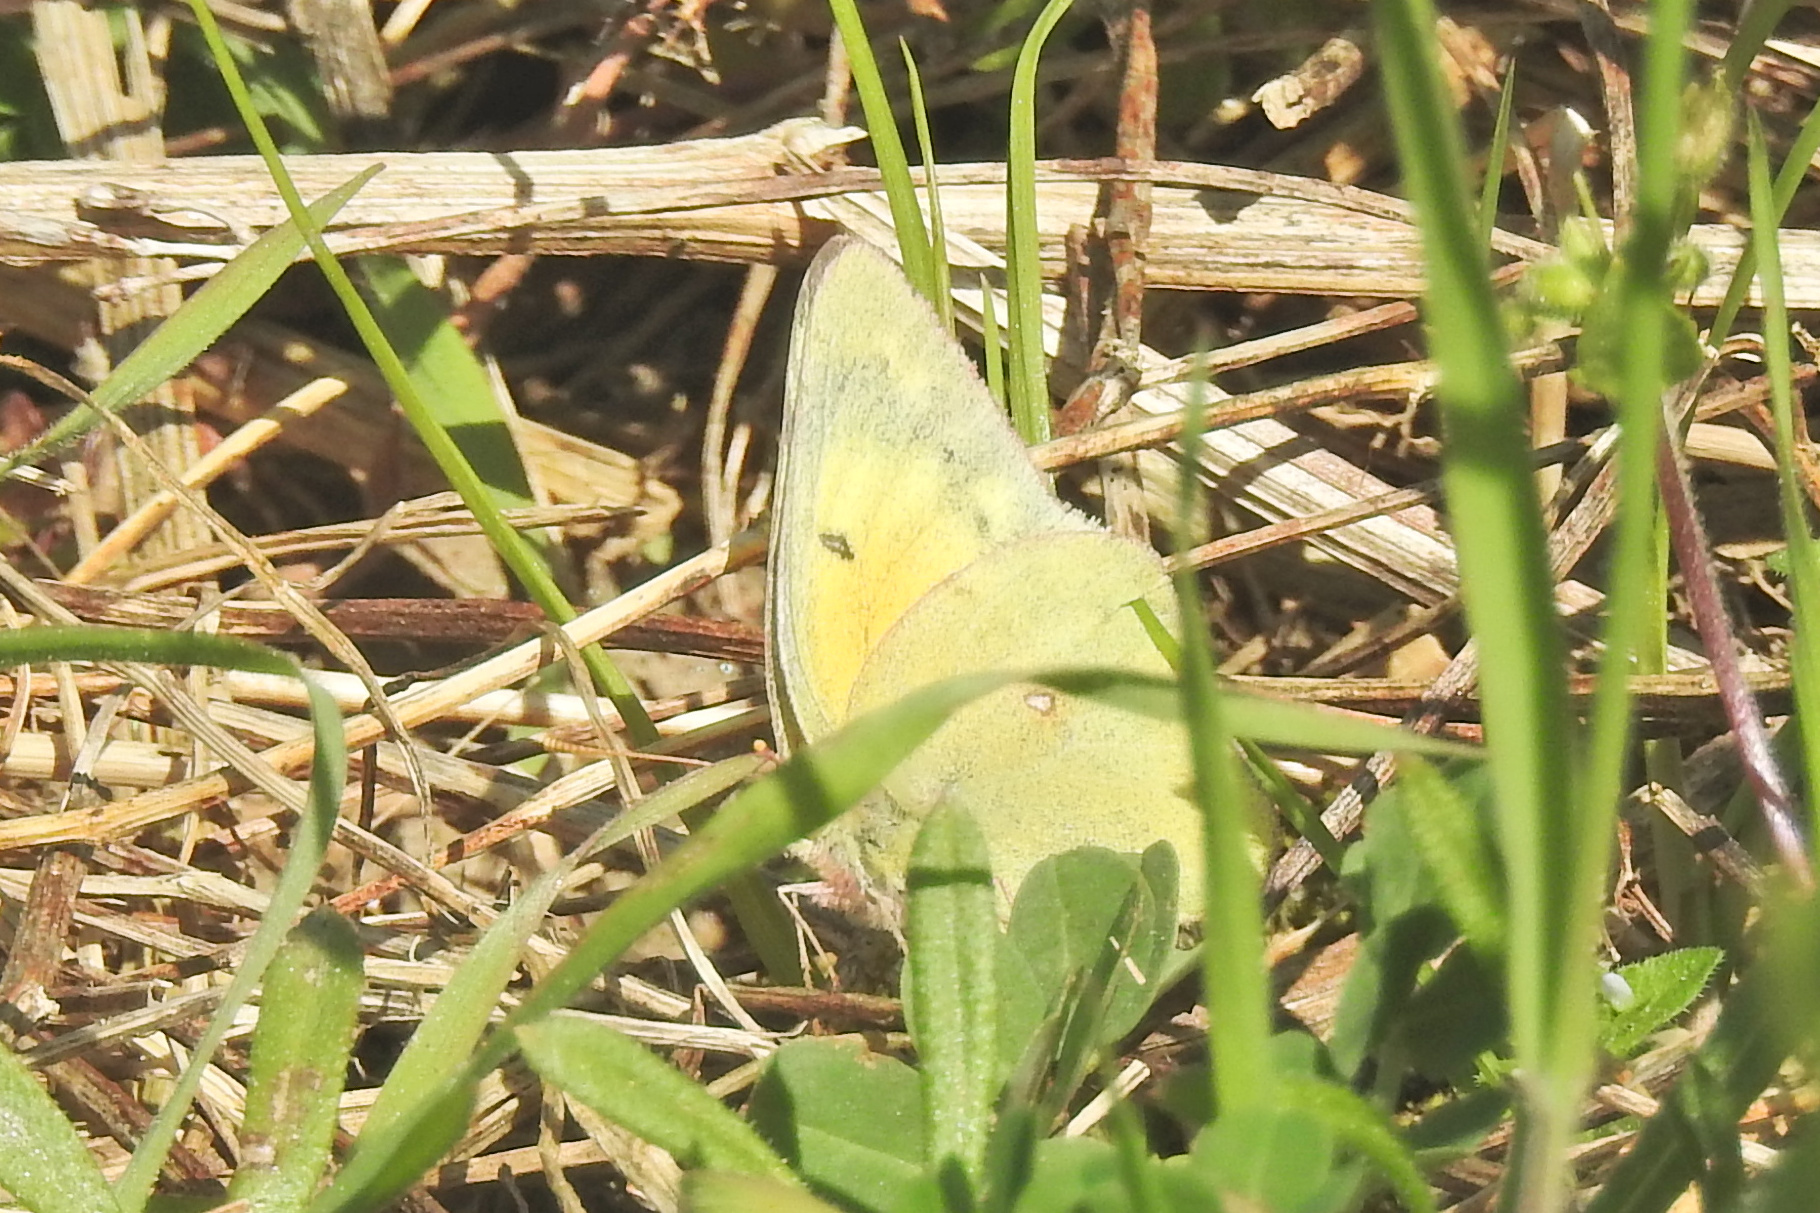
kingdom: Animalia
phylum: Arthropoda
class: Insecta
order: Lepidoptera
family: Pieridae
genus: Colias
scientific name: Colias eurytheme
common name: Alfalfa butterfly
